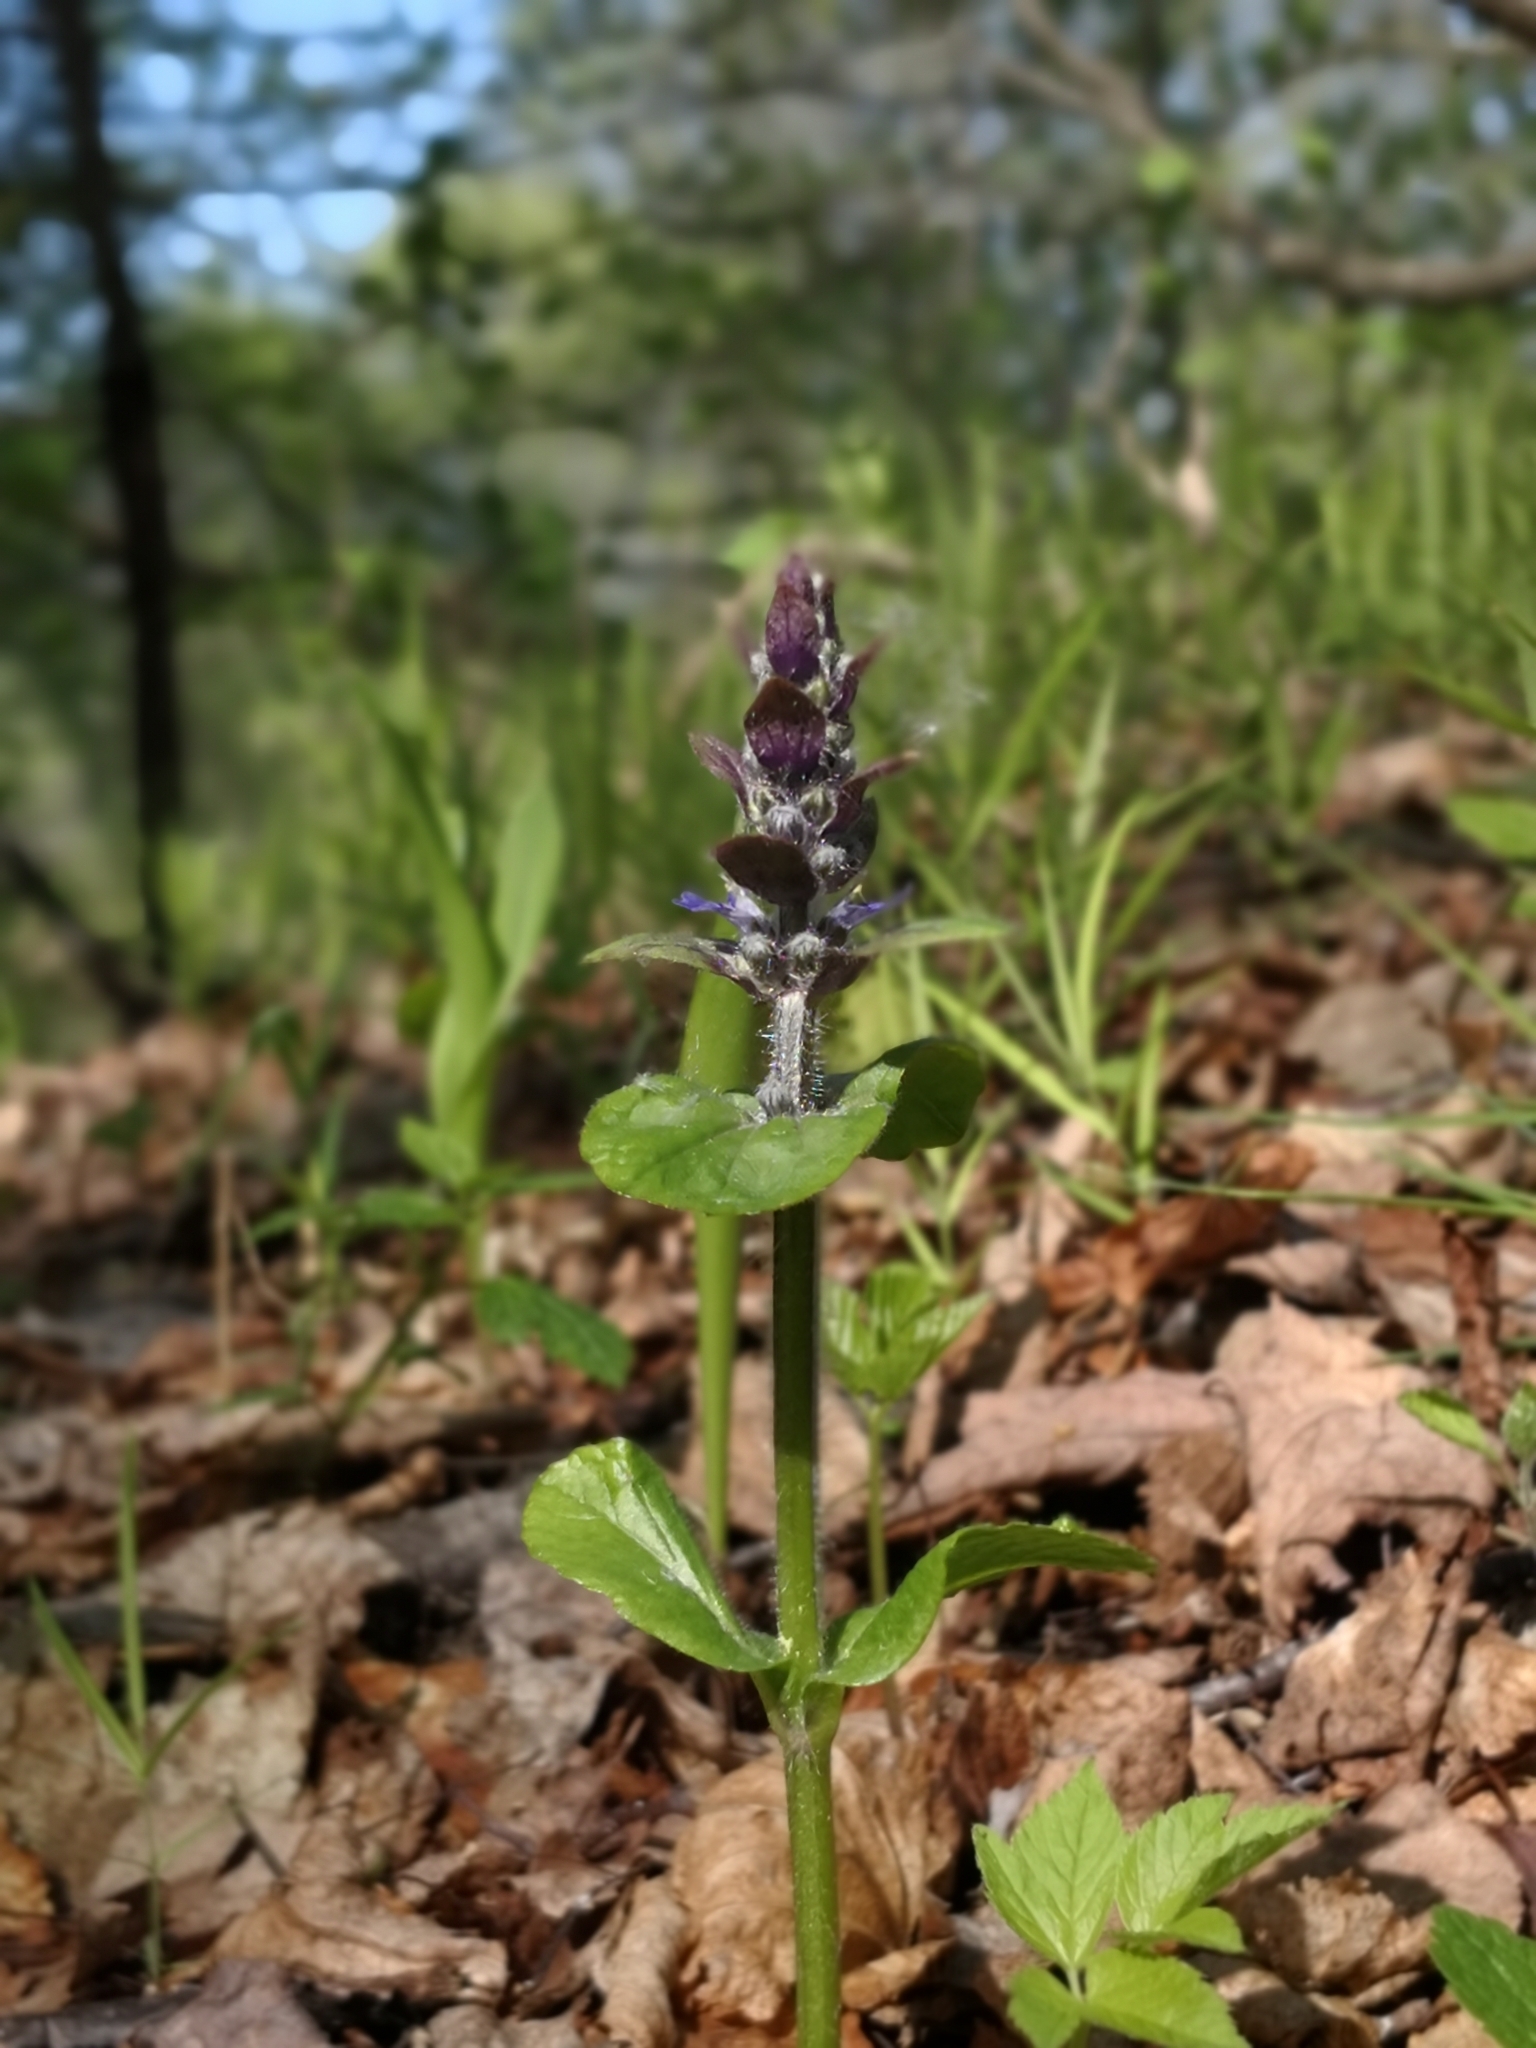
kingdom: Plantae
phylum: Tracheophyta
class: Magnoliopsida
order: Lamiales
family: Lamiaceae
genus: Ajuga
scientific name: Ajuga reptans
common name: Bugle
